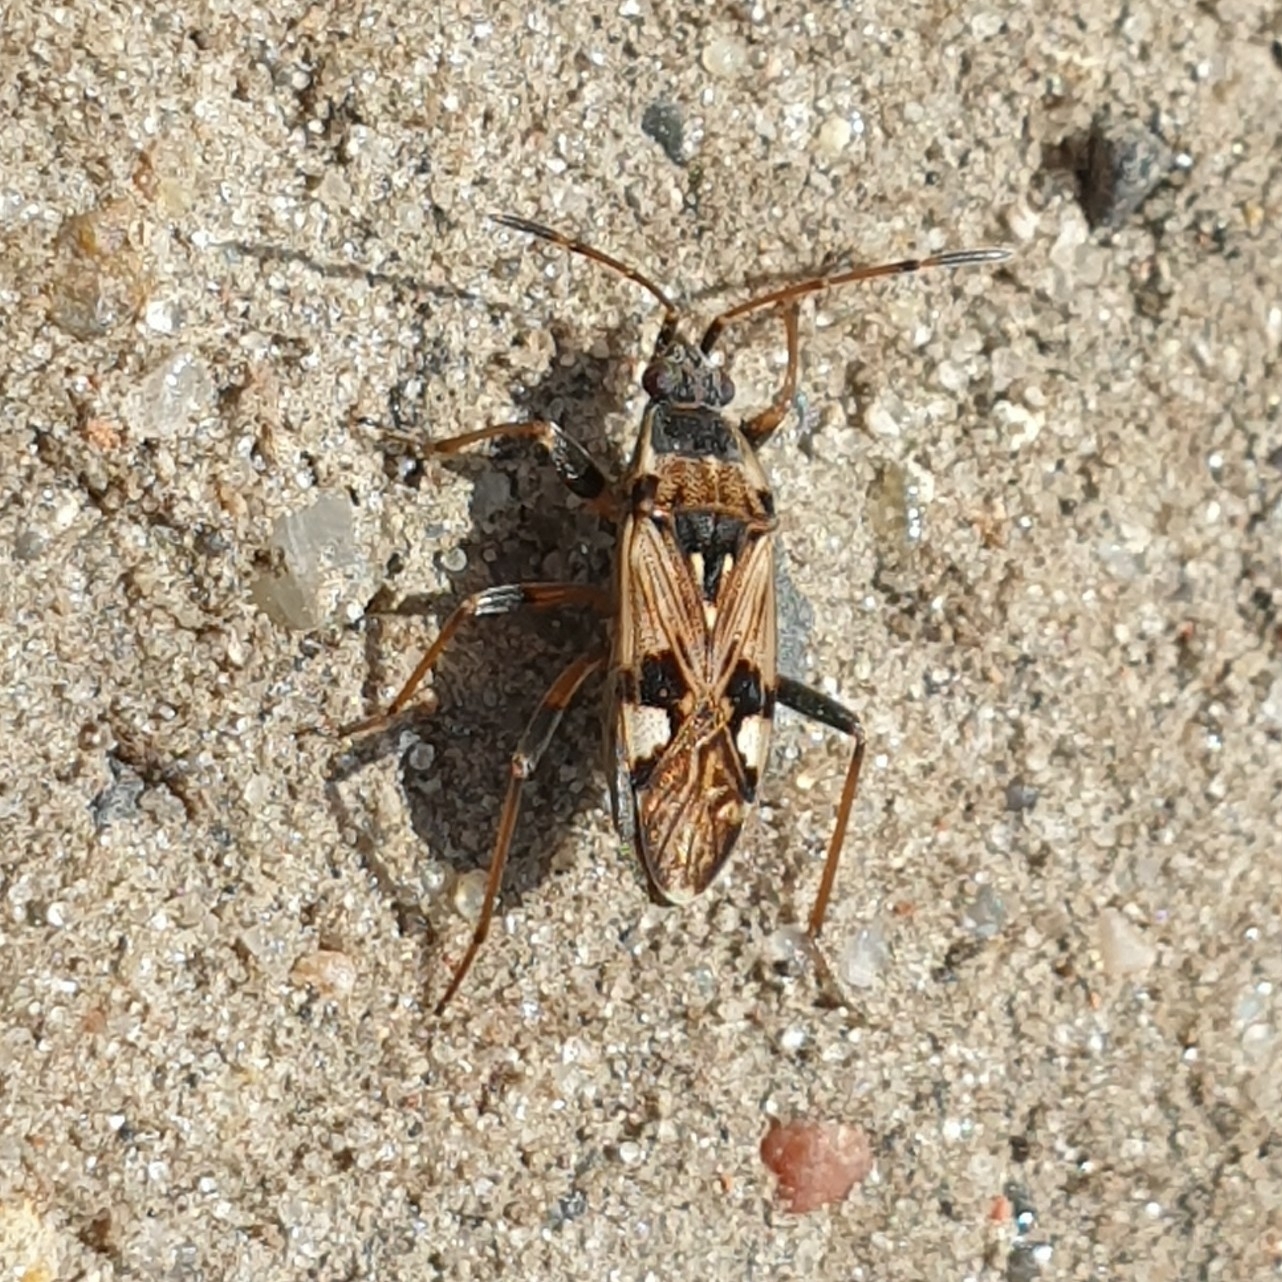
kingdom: Animalia
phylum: Arthropoda
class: Insecta
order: Hemiptera
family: Rhyparochromidae
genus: Beosus
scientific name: Beosus maritimus
